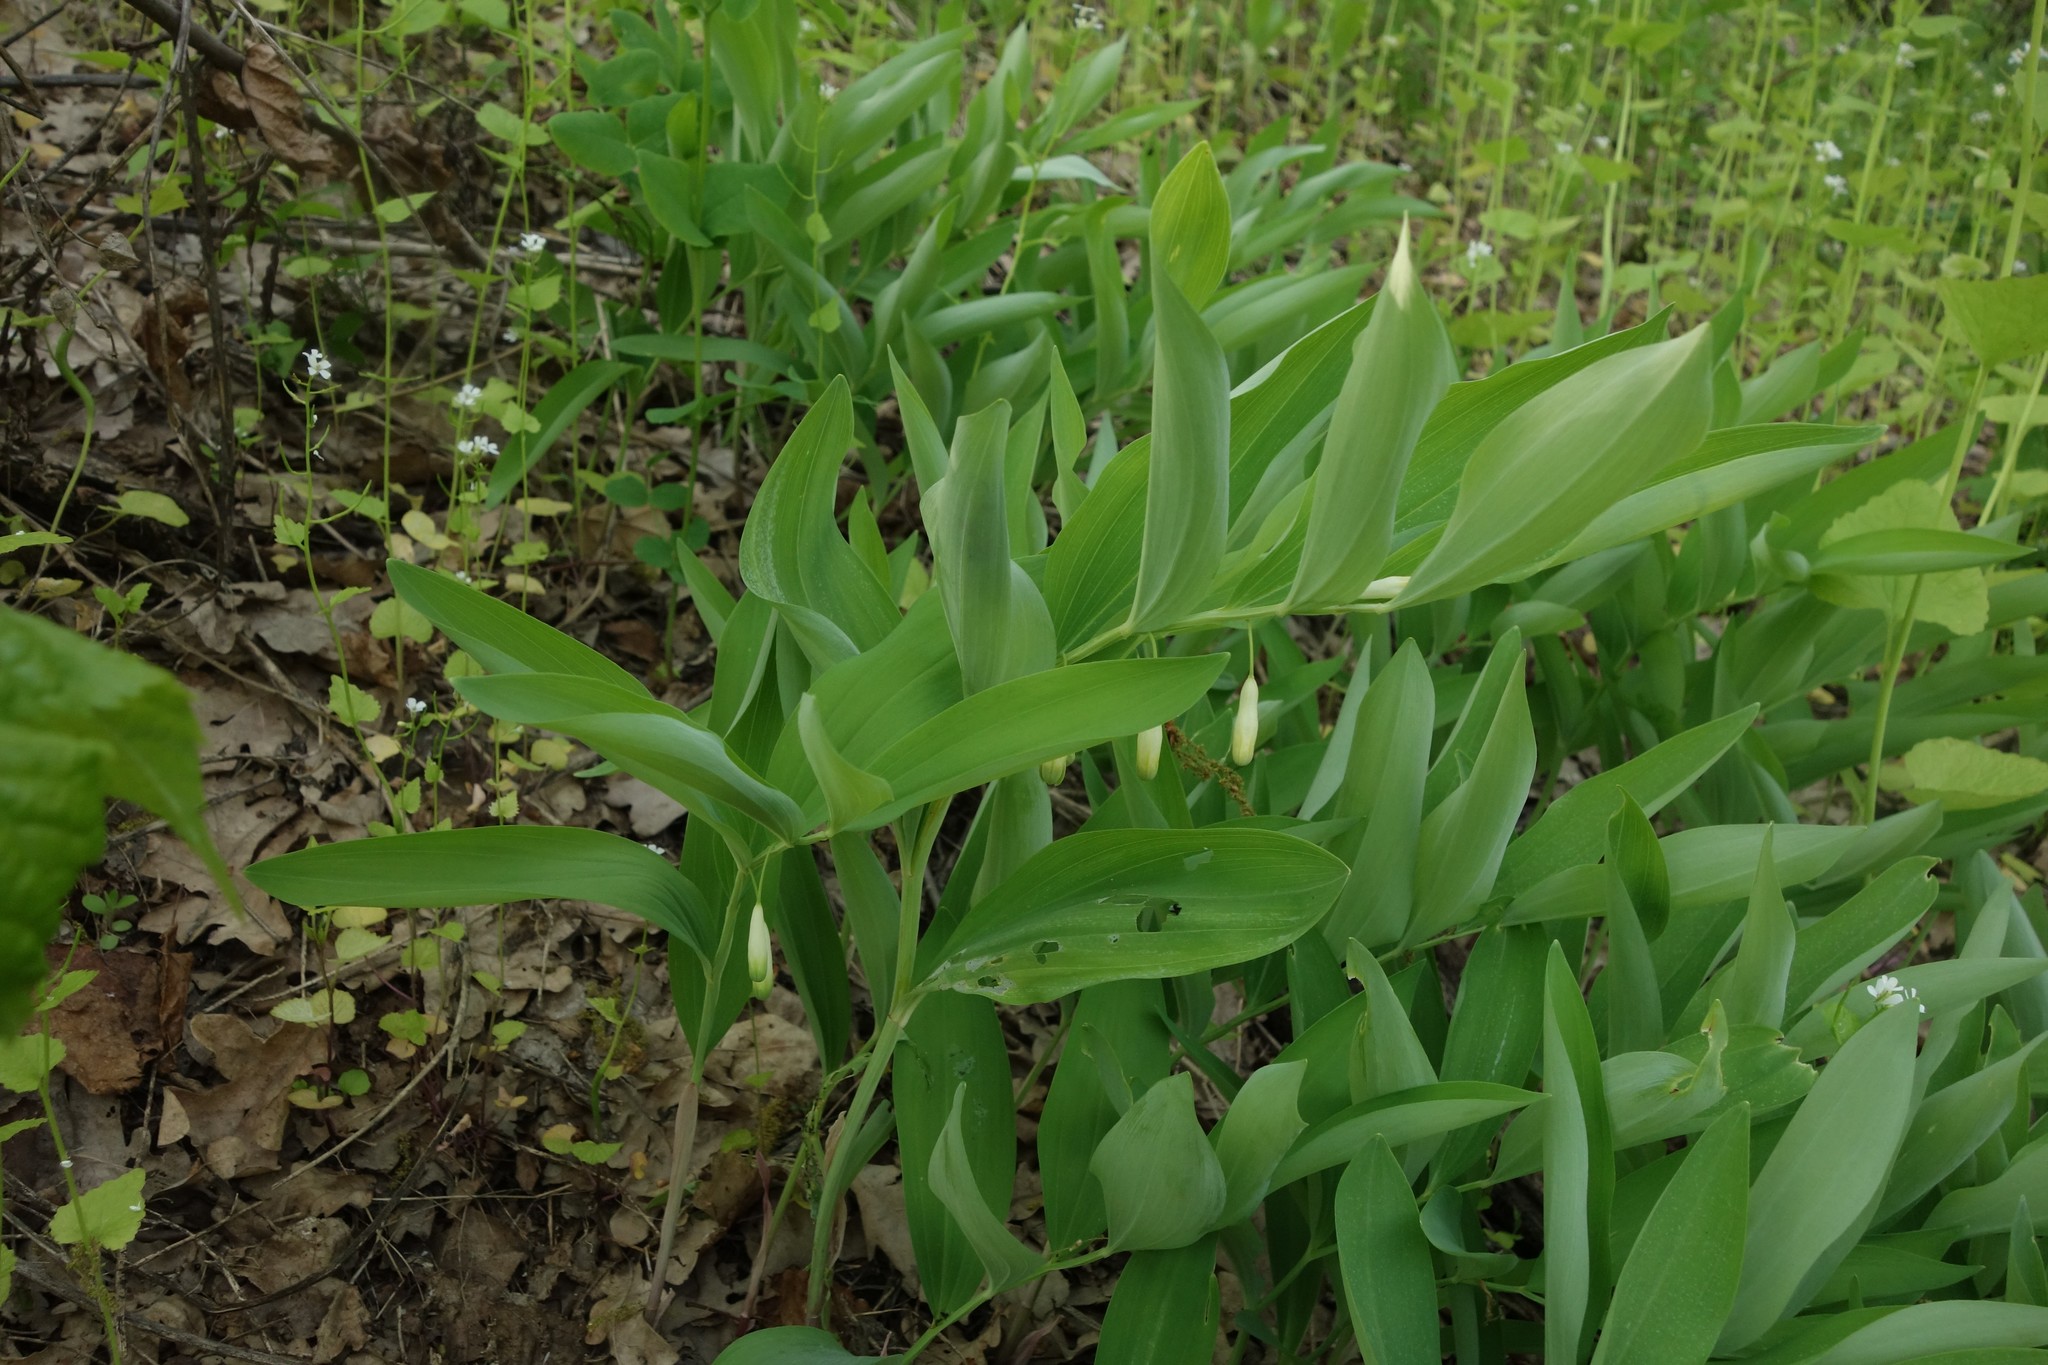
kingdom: Plantae
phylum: Tracheophyta
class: Liliopsida
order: Asparagales
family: Asparagaceae
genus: Polygonatum
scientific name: Polygonatum odoratum
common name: Angular solomon's-seal
